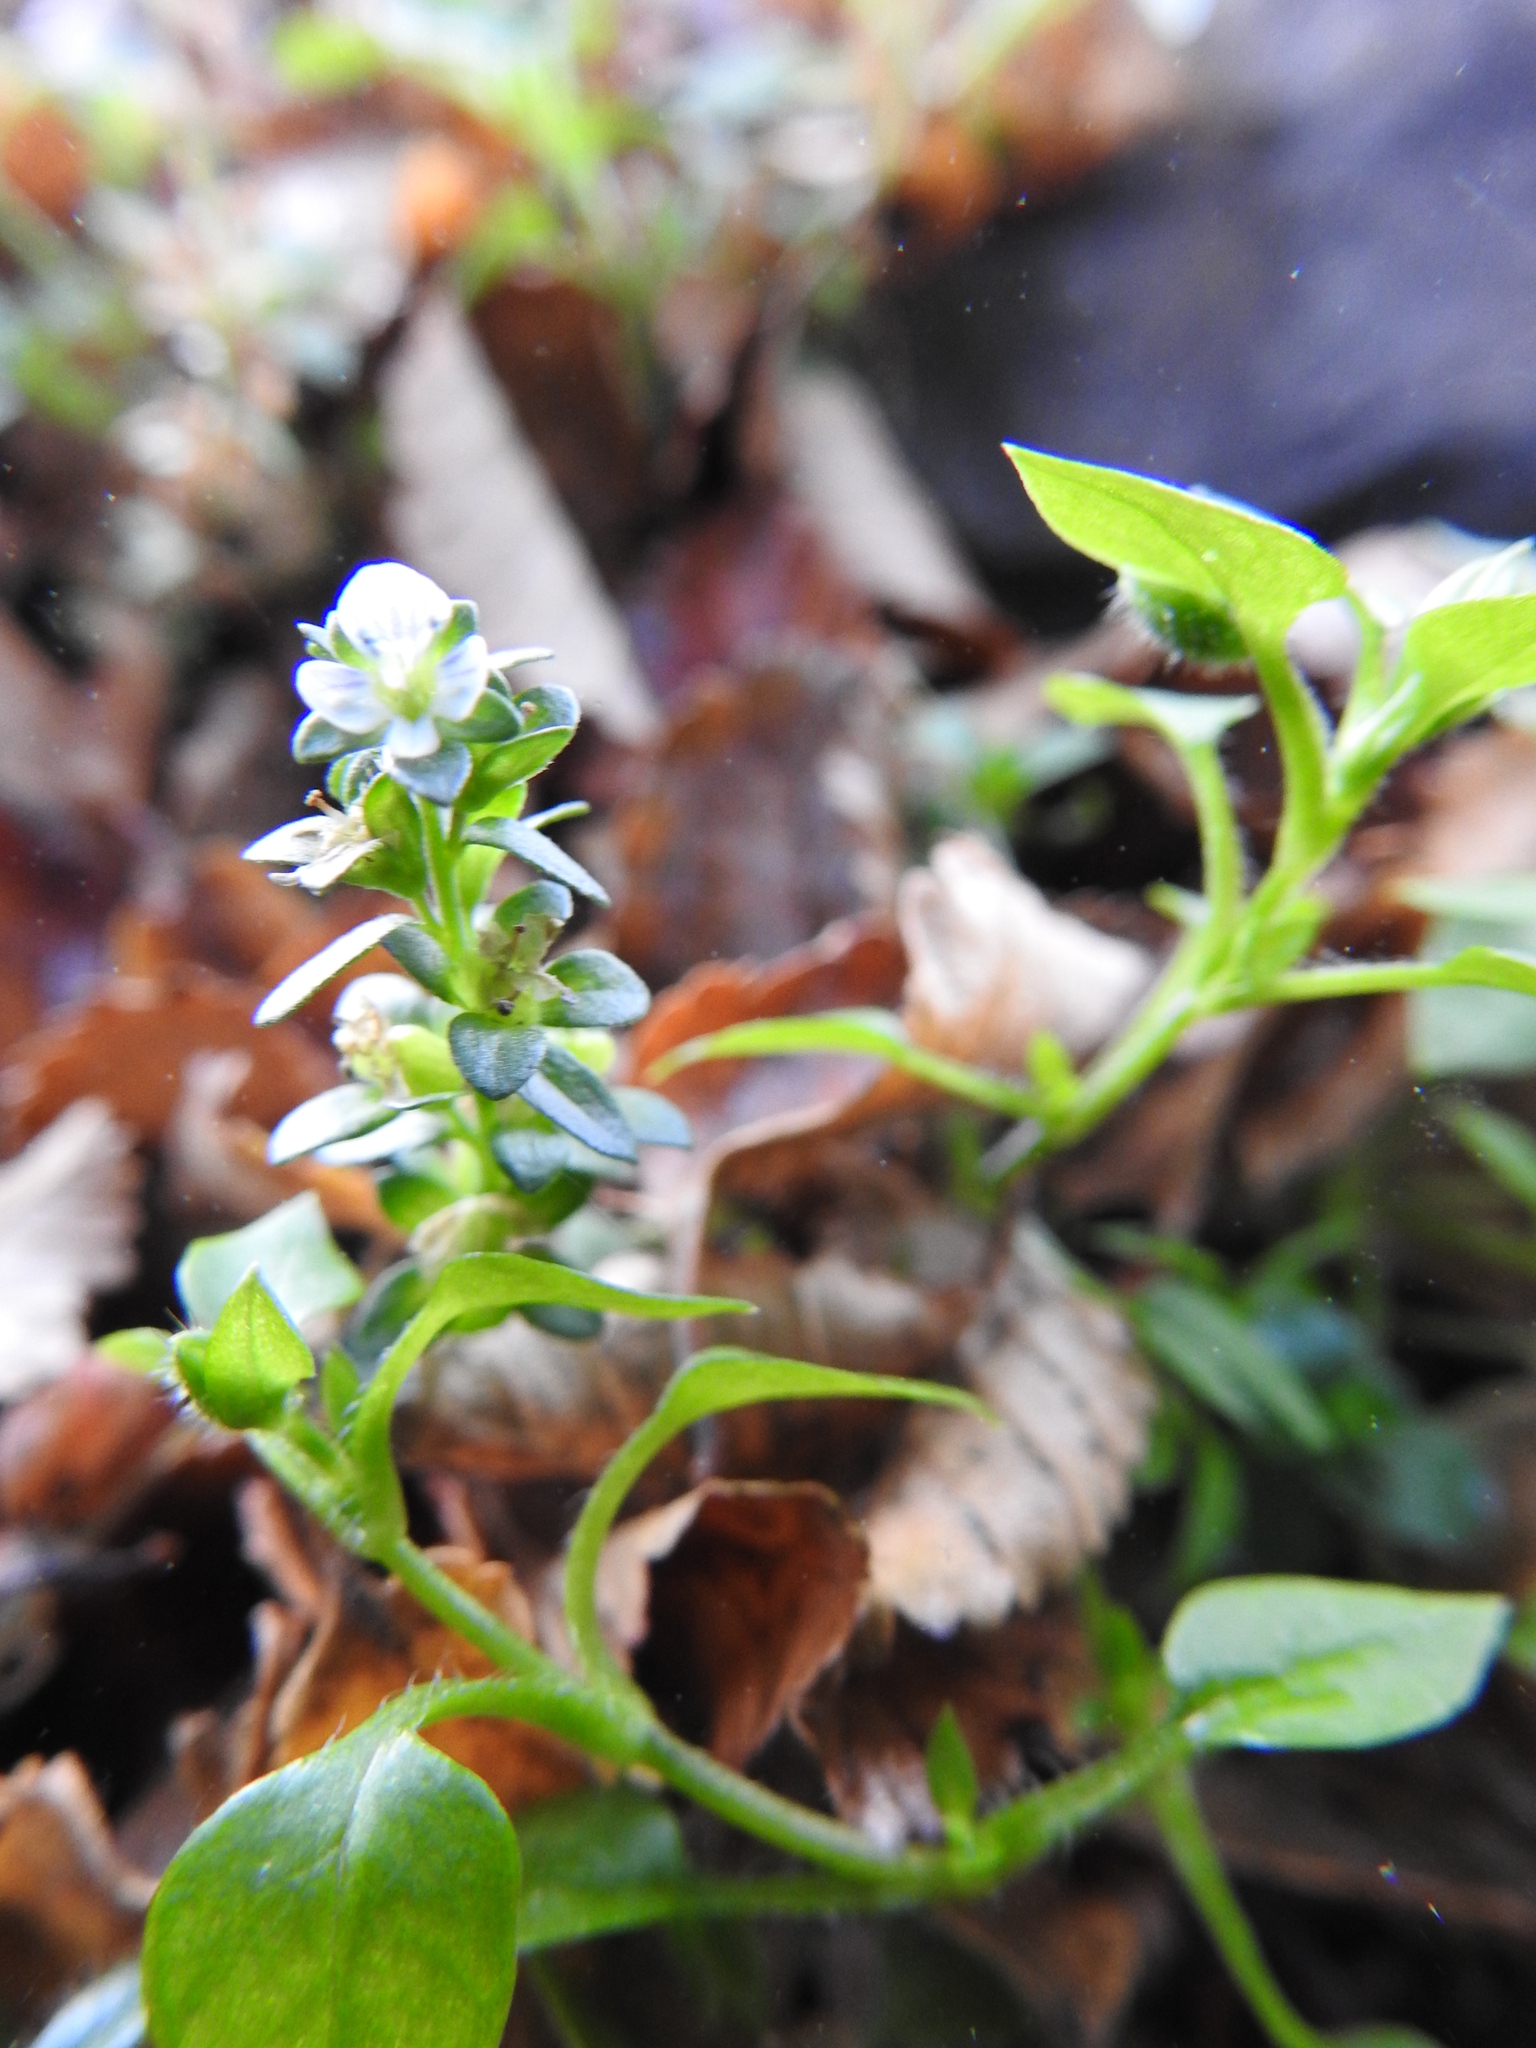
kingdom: Plantae
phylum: Tracheophyta
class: Magnoliopsida
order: Lamiales
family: Plantaginaceae
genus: Veronica
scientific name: Veronica serpyllifolia
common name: Thyme-leaved speedwell
